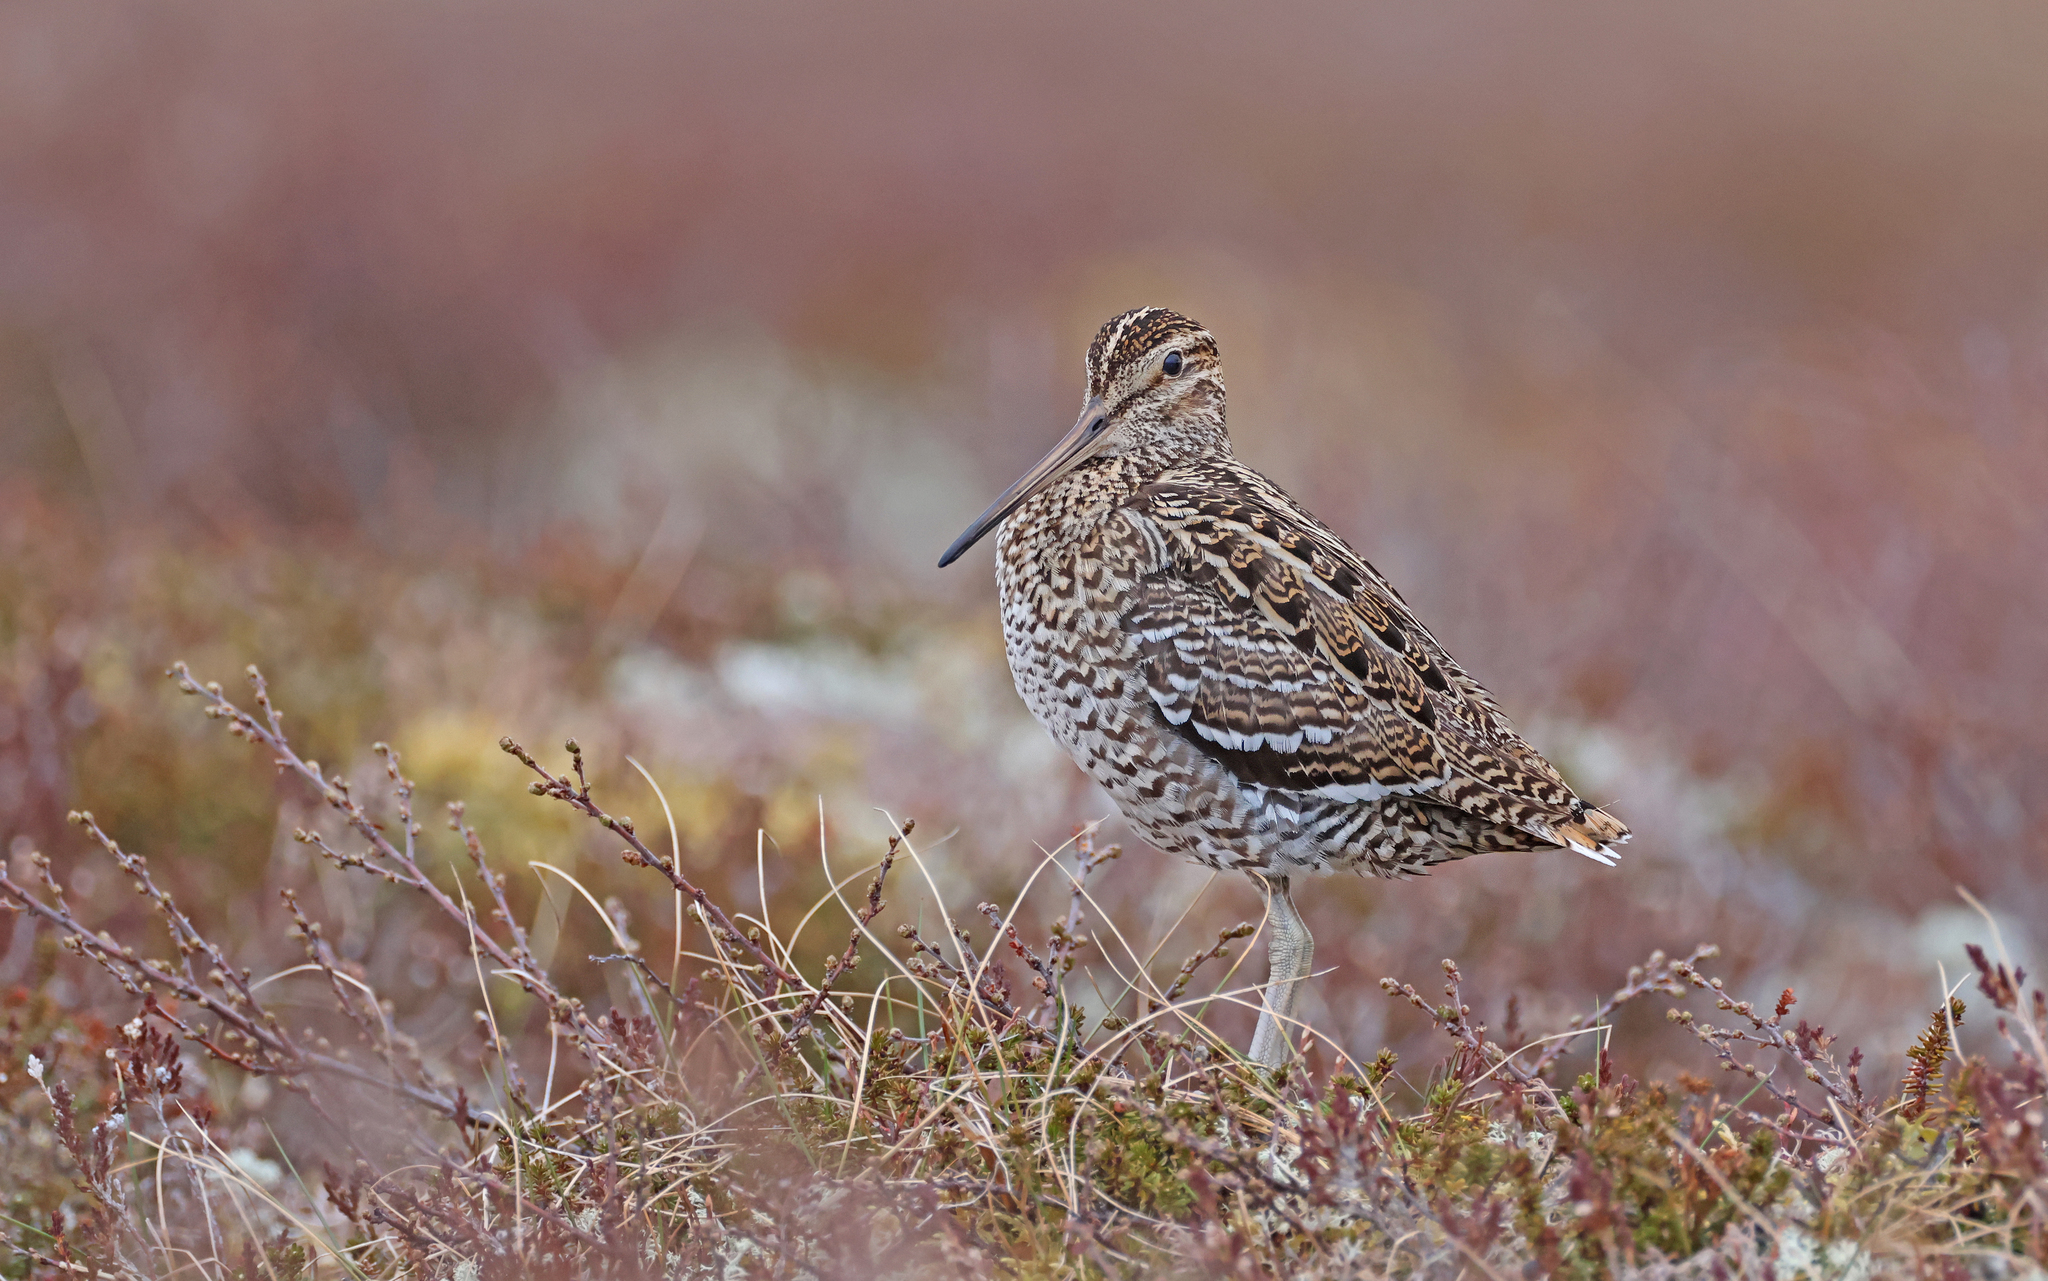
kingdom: Animalia
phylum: Chordata
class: Aves
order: Charadriiformes
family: Scolopacidae
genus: Gallinago
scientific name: Gallinago media
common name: Great snipe
